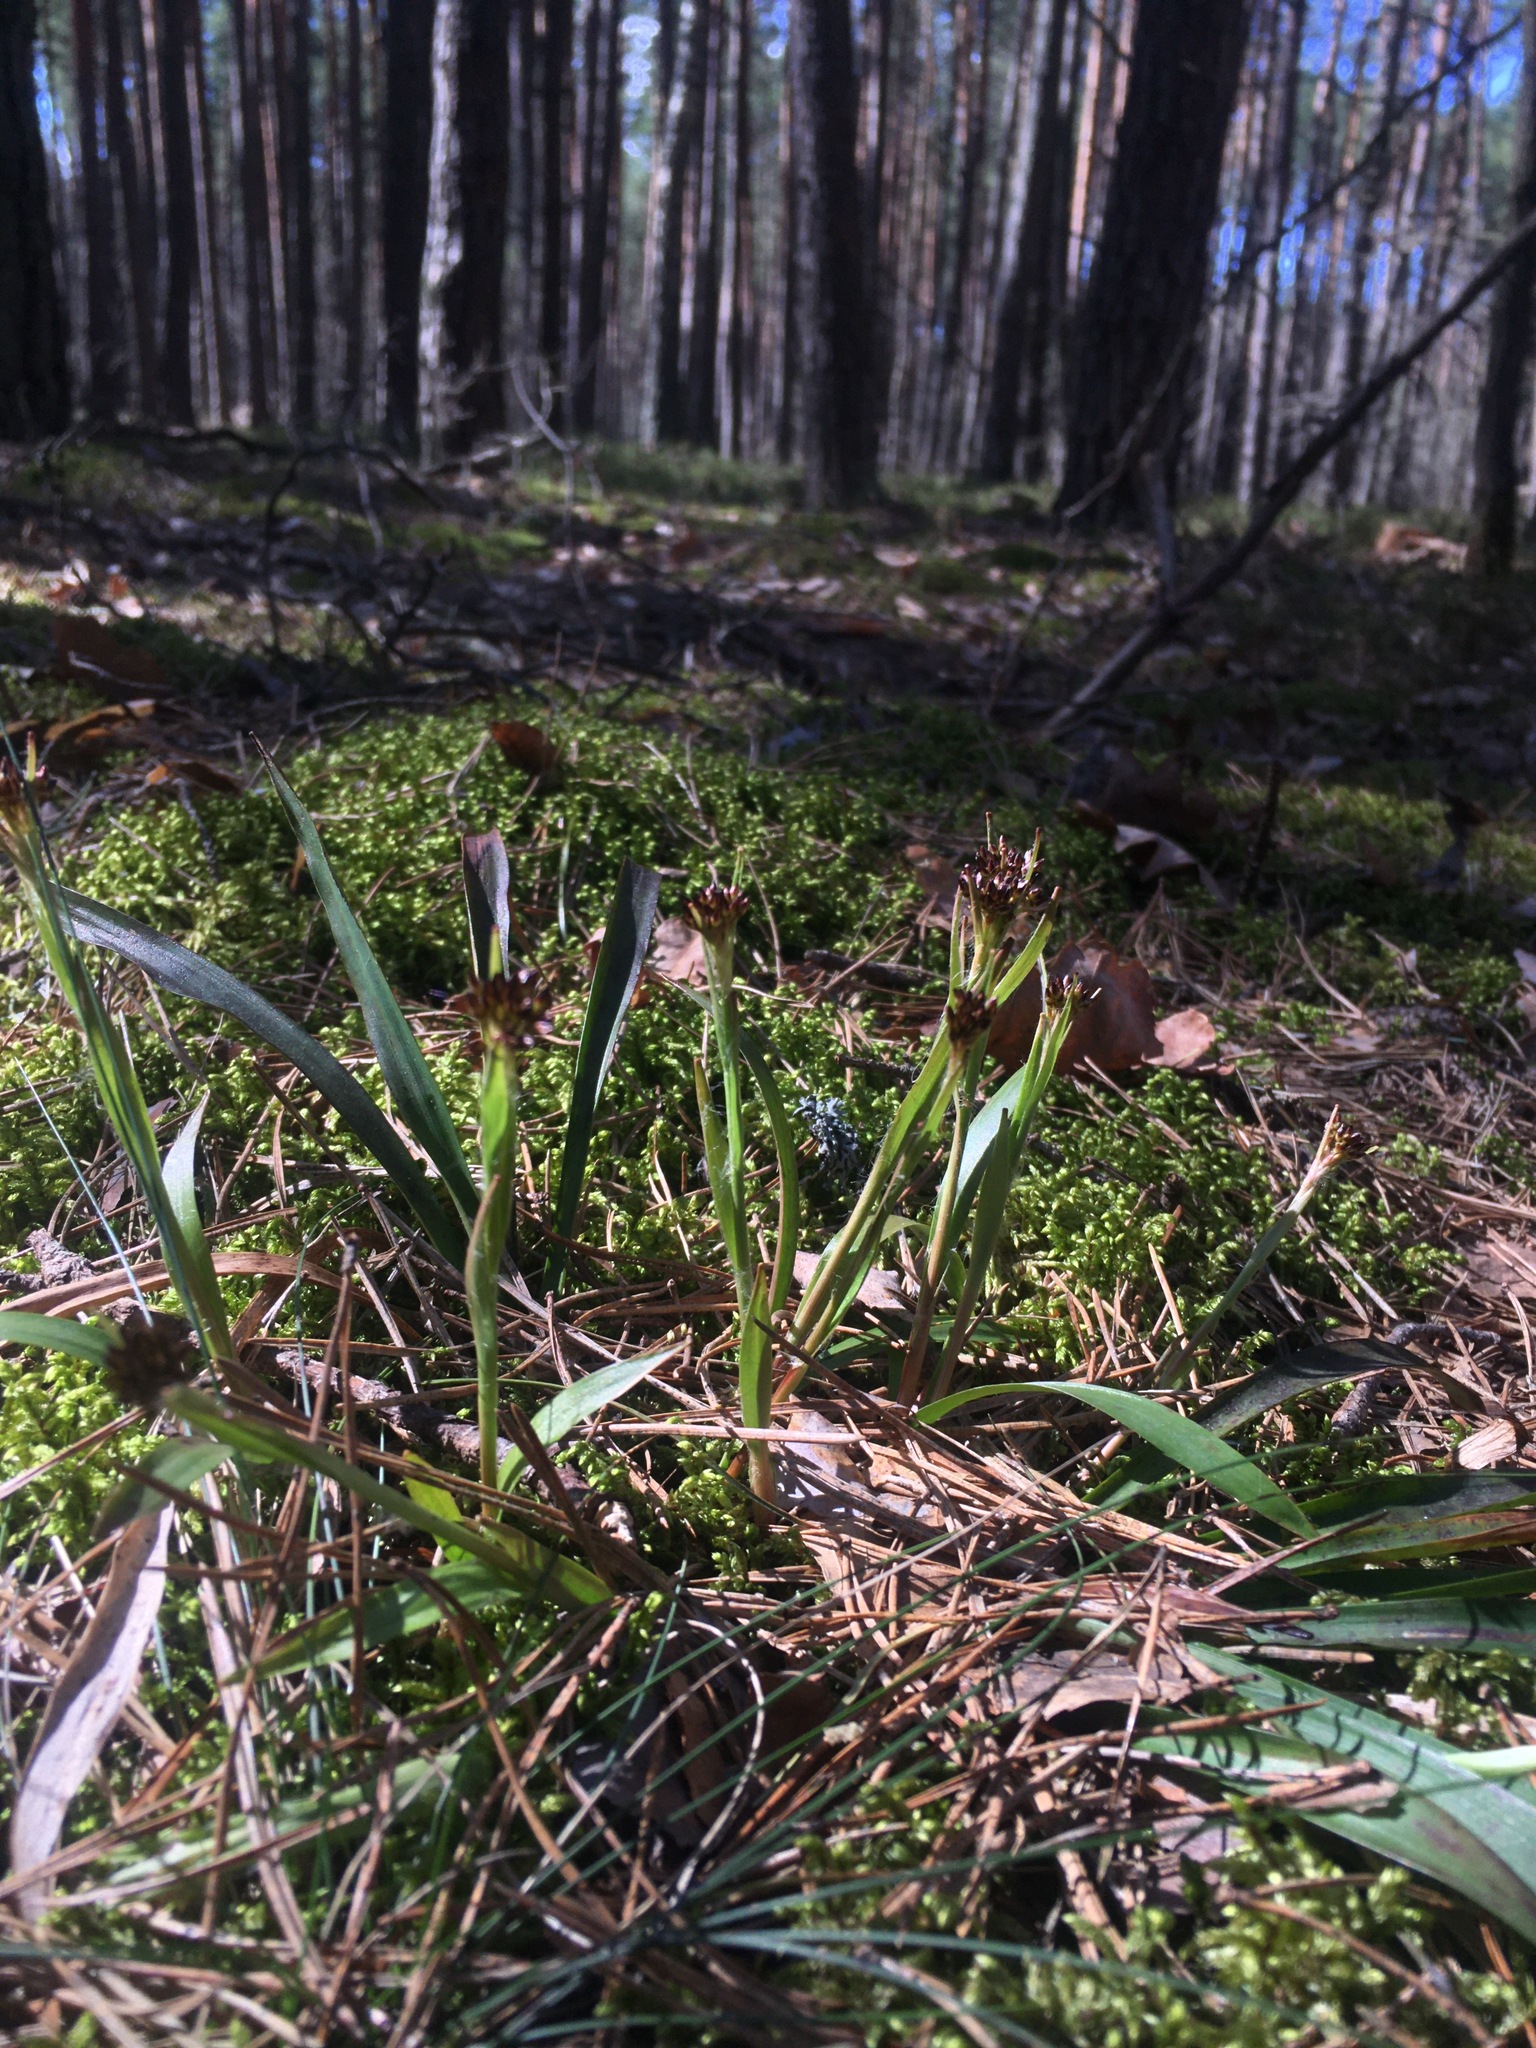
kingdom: Plantae
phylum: Tracheophyta
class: Liliopsida
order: Poales
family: Juncaceae
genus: Luzula
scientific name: Luzula pilosa
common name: Hairy wood-rush
